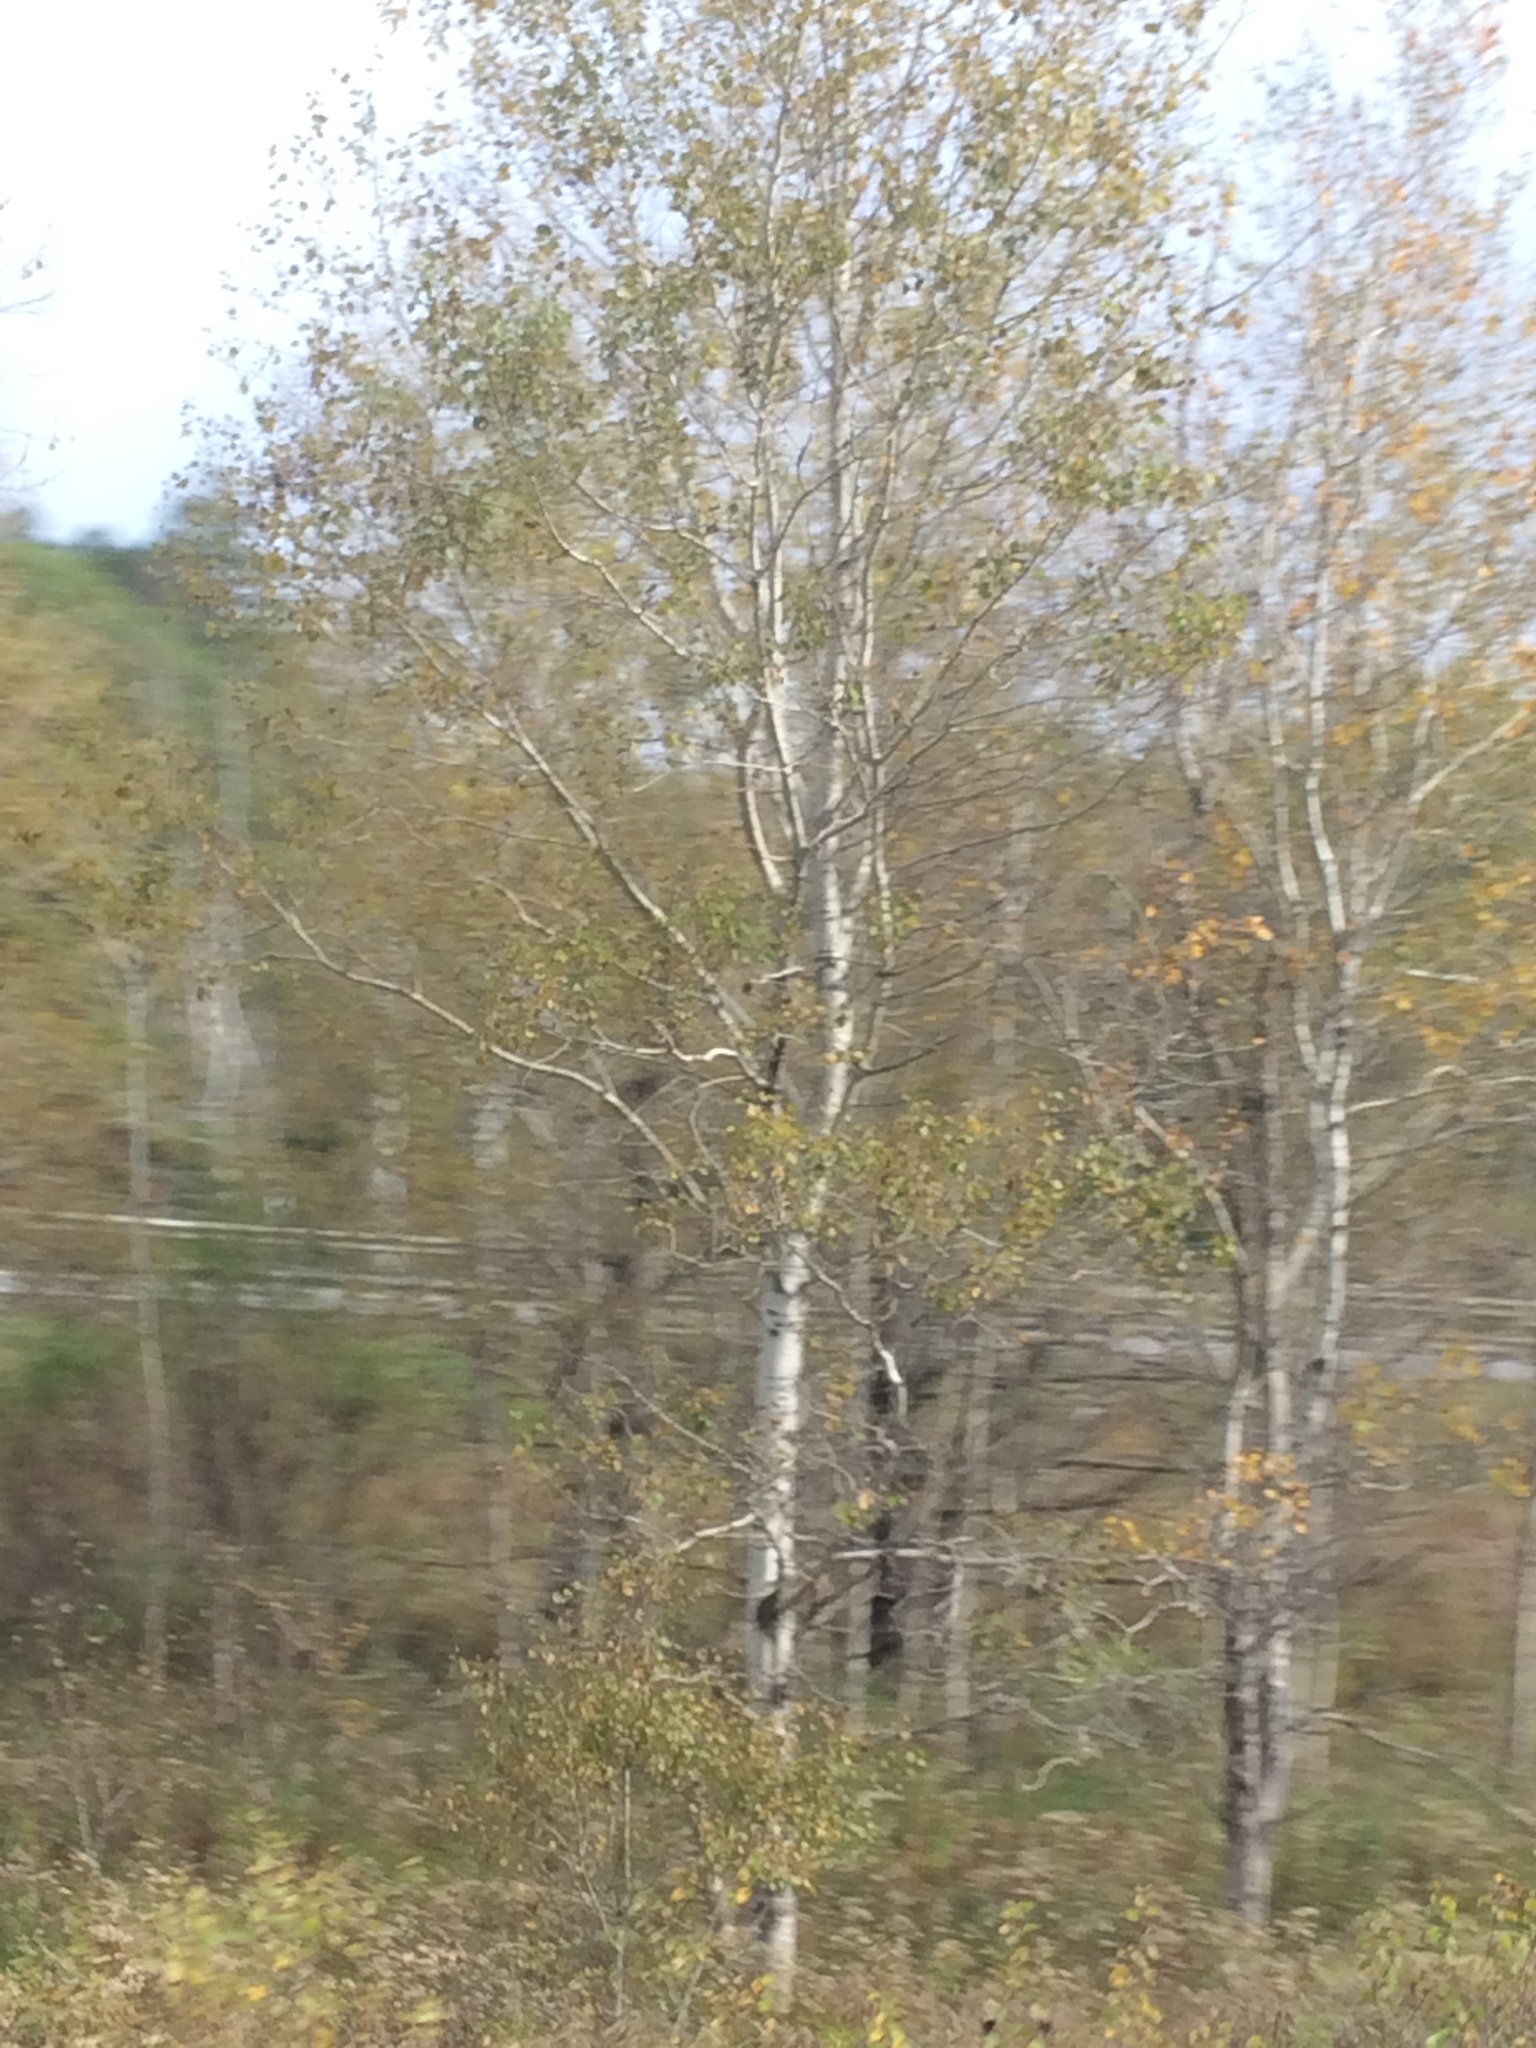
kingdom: Plantae
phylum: Tracheophyta
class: Magnoliopsida
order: Malpighiales
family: Salicaceae
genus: Populus
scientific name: Populus tremuloides
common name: Quaking aspen
